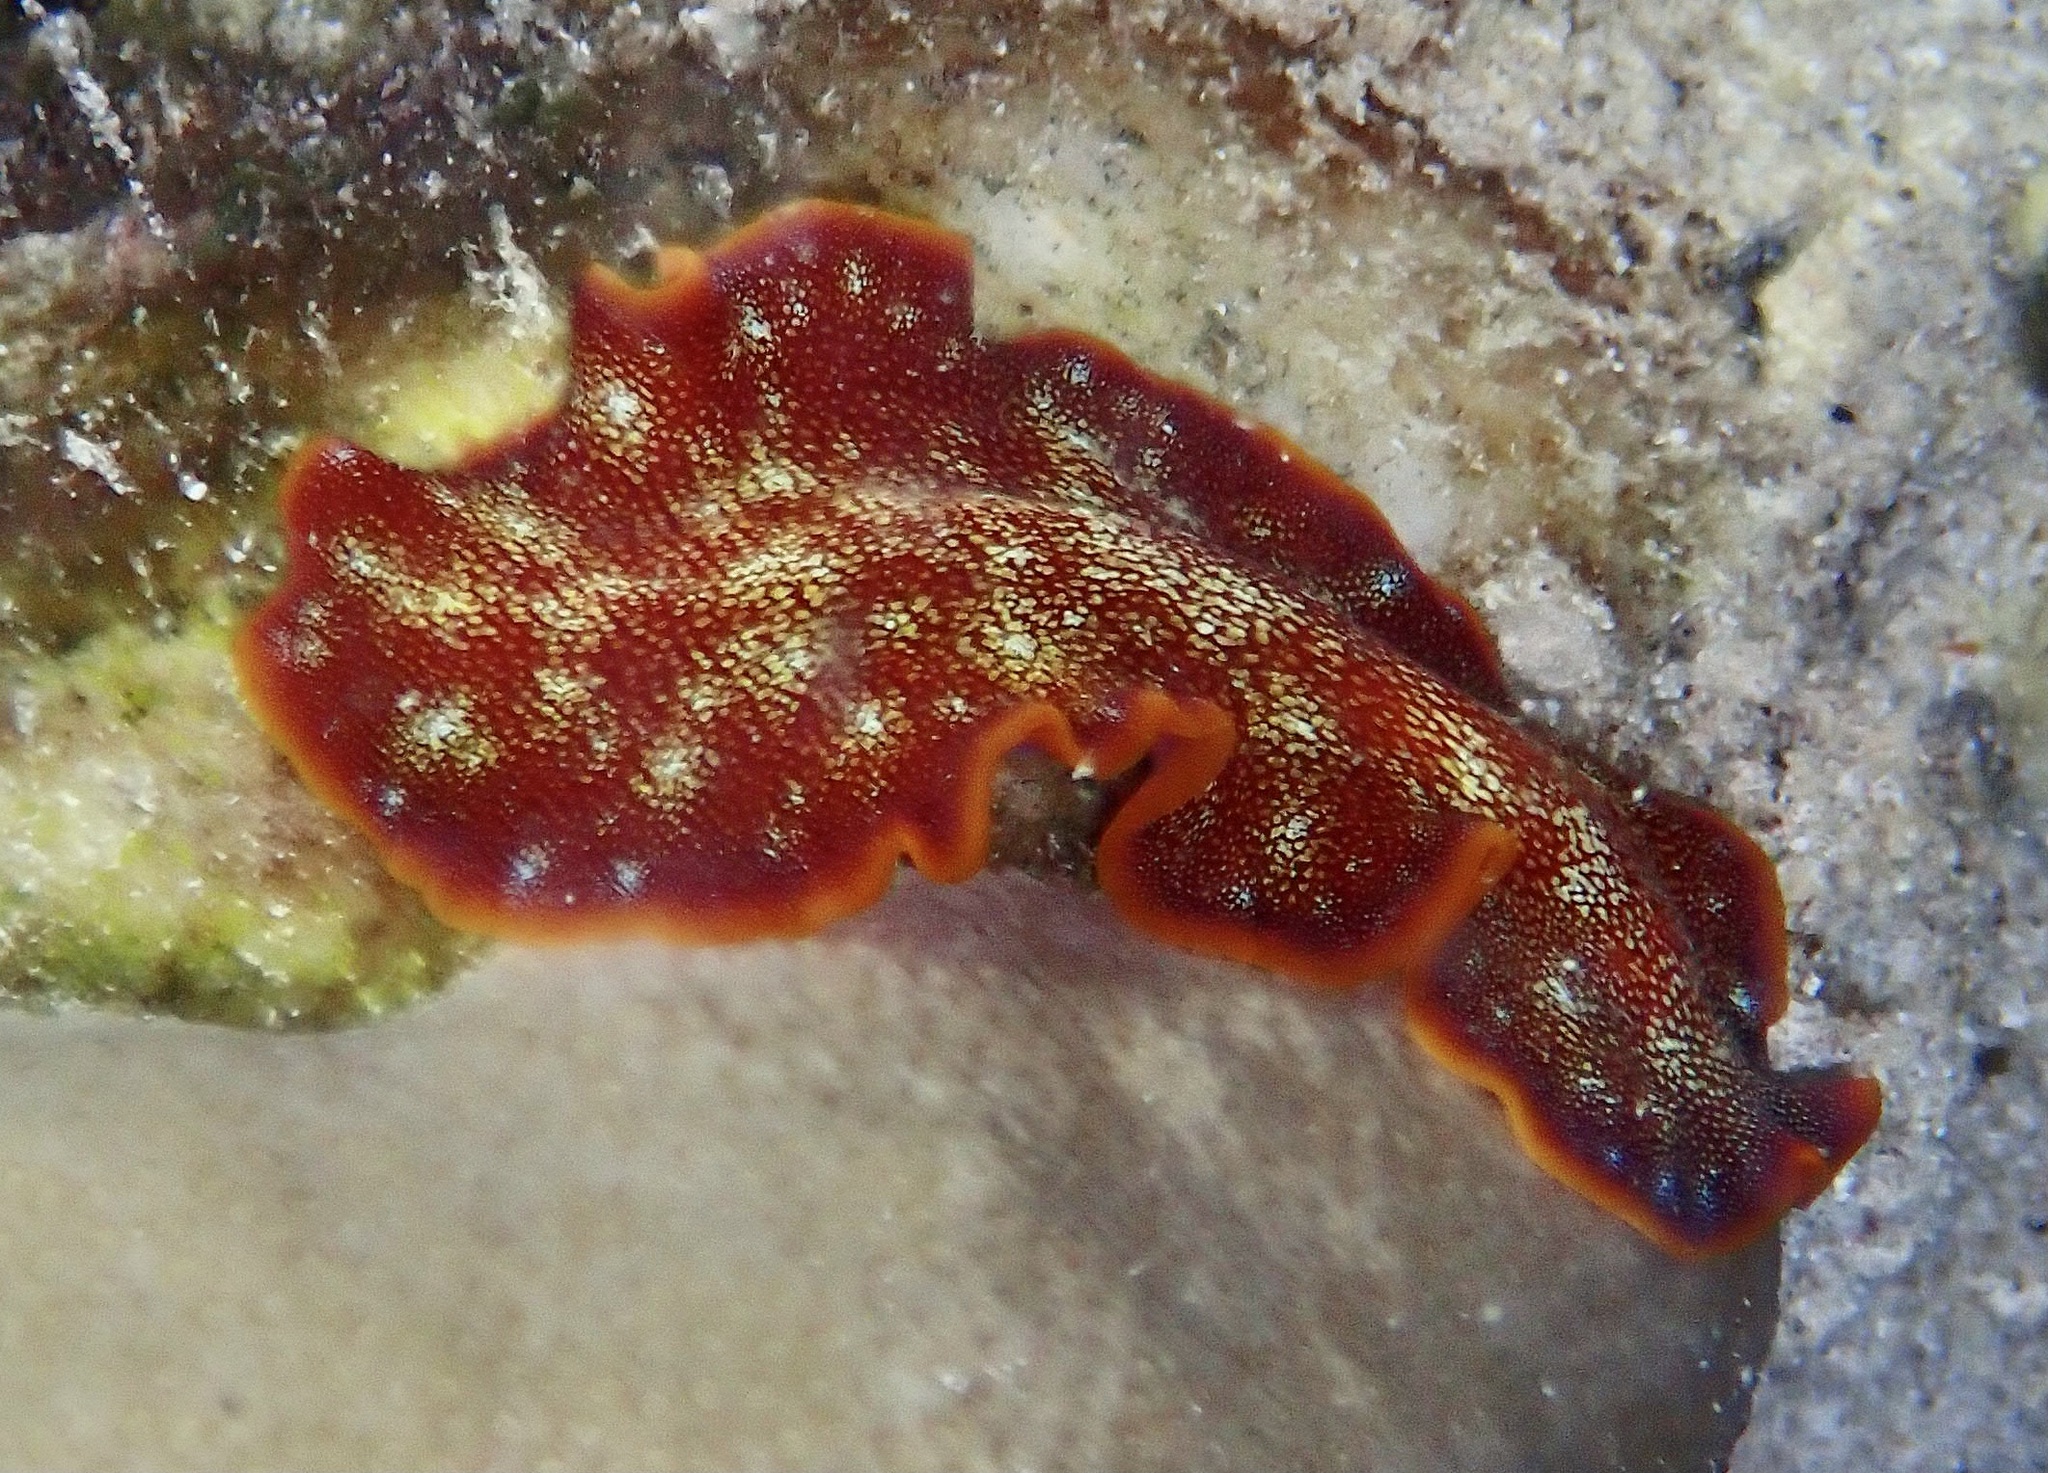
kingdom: Animalia
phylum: Platyhelminthes
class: Turbellaria
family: Pseudocerotidae
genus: Pseudoceros
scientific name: Pseudoceros ferrugineus
